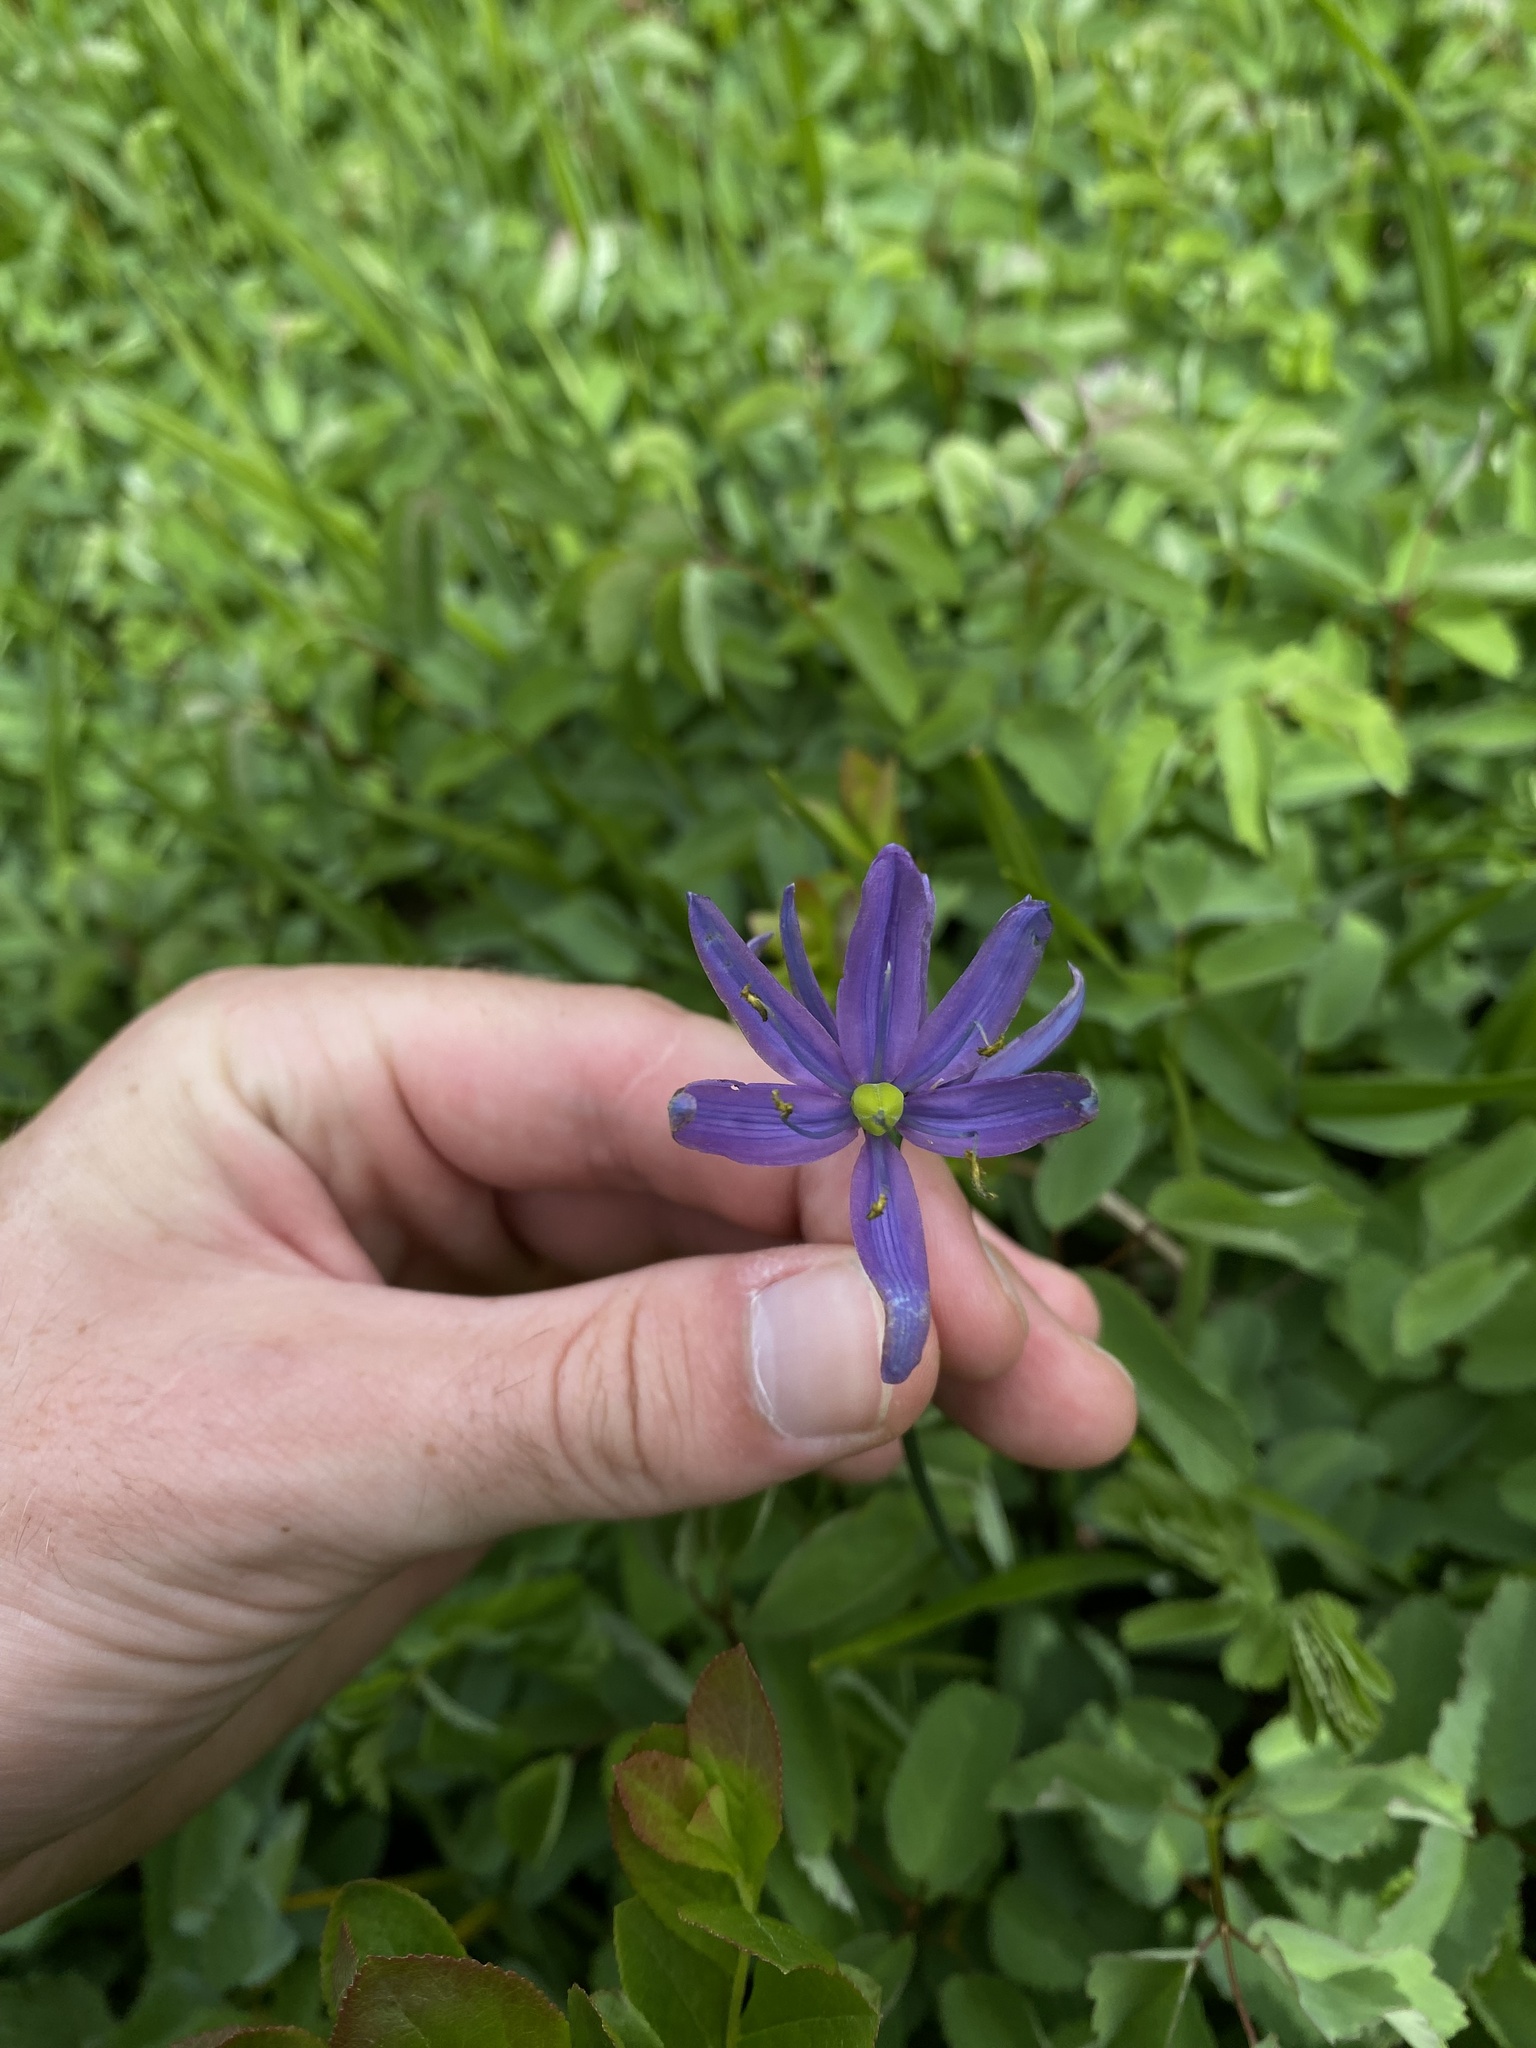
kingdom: Plantae
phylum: Tracheophyta
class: Liliopsida
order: Asparagales
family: Asparagaceae
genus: Camassia
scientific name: Camassia quamash
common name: Common camas
